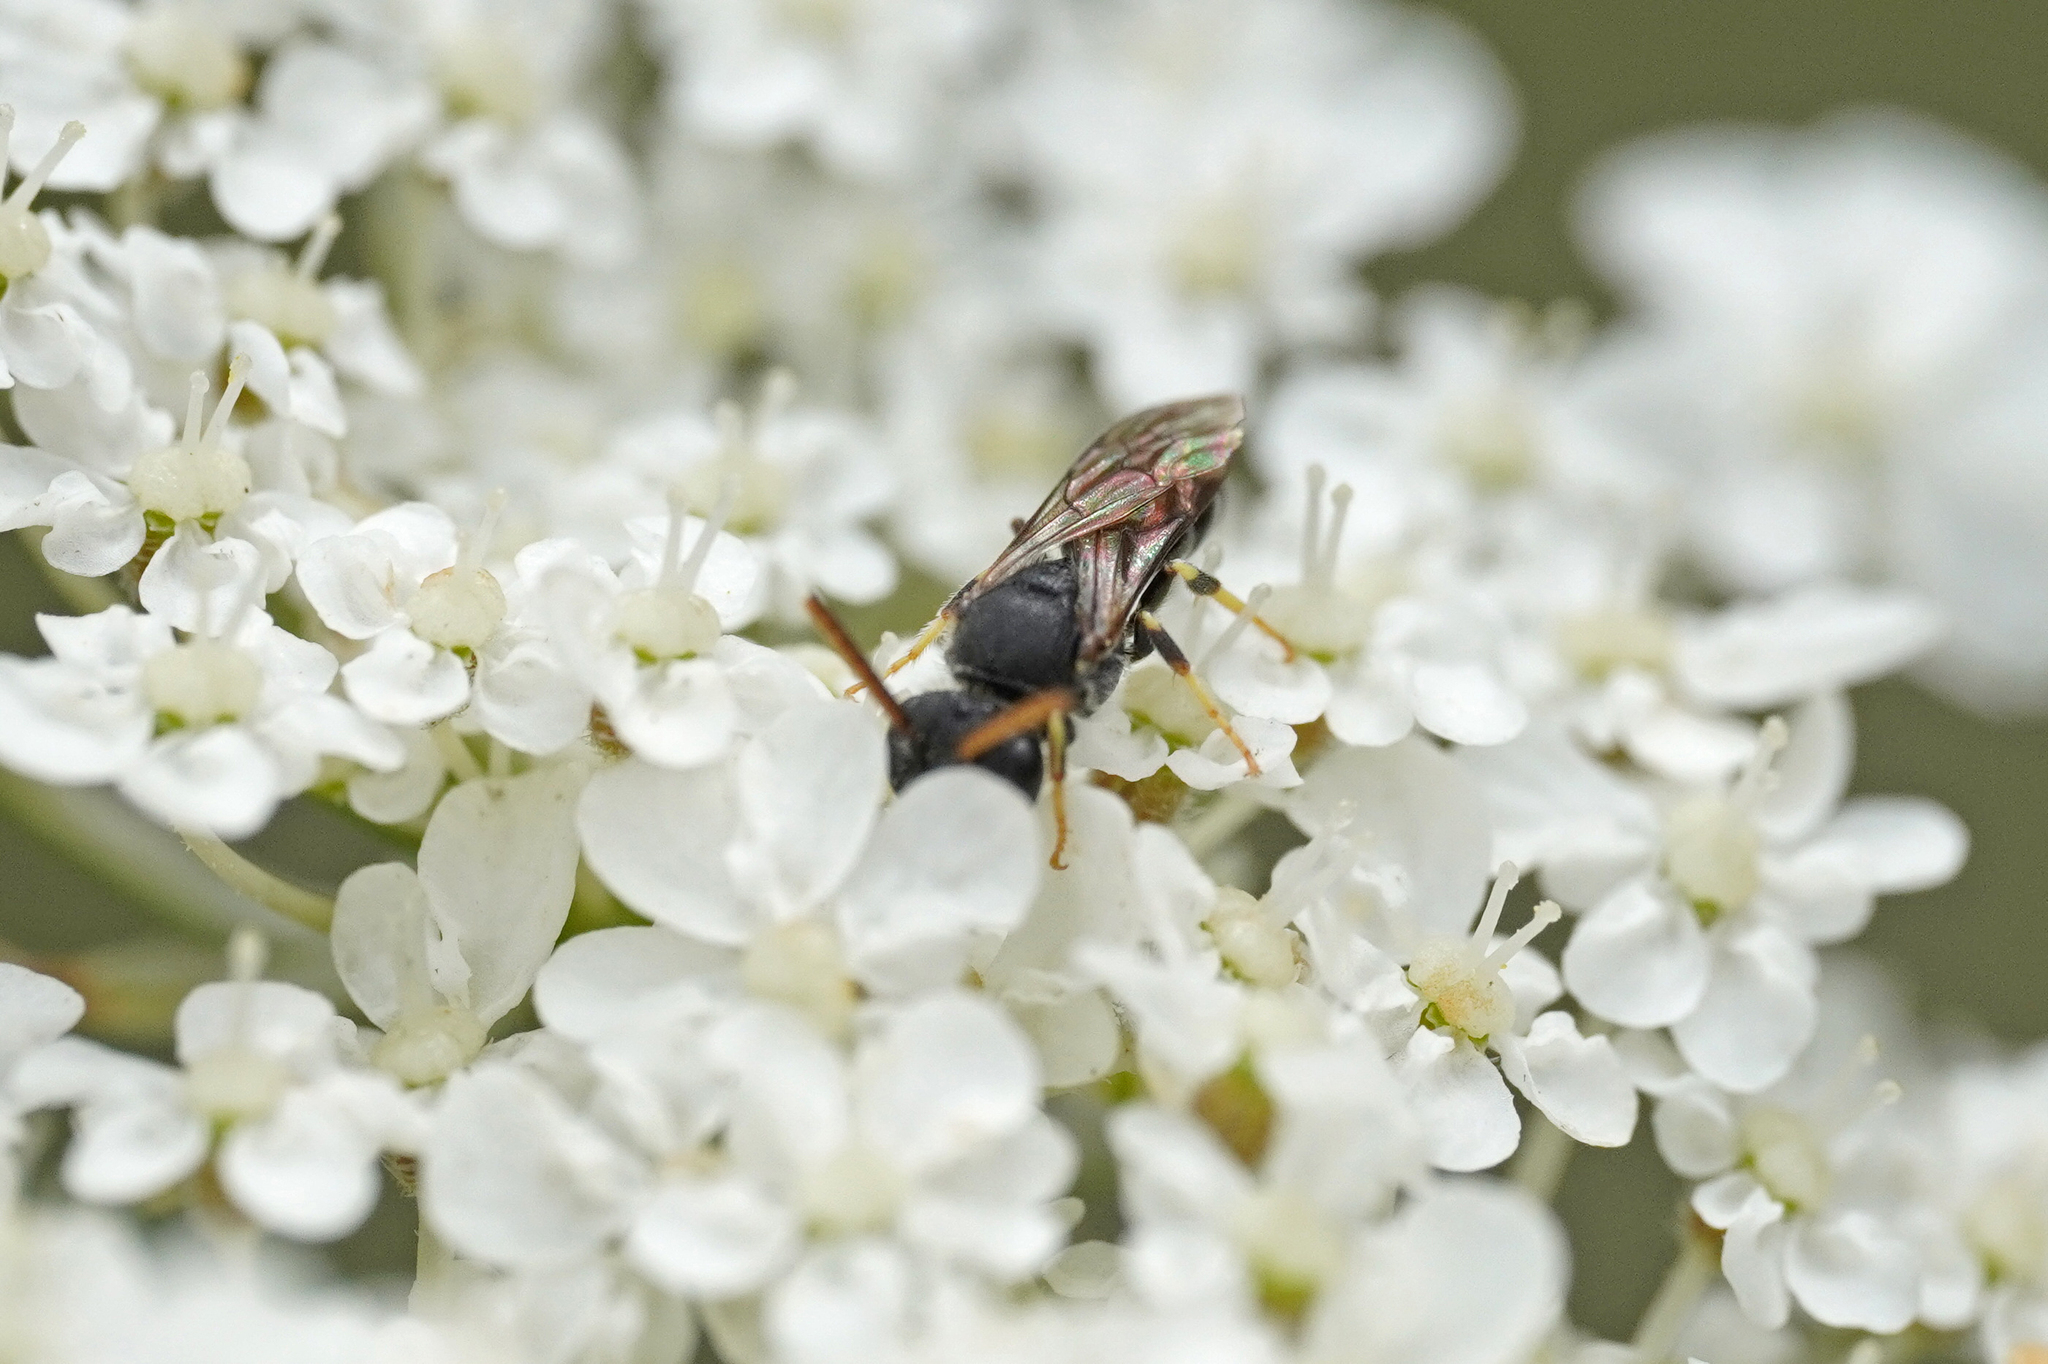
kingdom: Animalia
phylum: Arthropoda
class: Insecta
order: Hymenoptera
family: Colletidae
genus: Hylaeus
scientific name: Hylaeus punctatus
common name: Punctate masked bee
